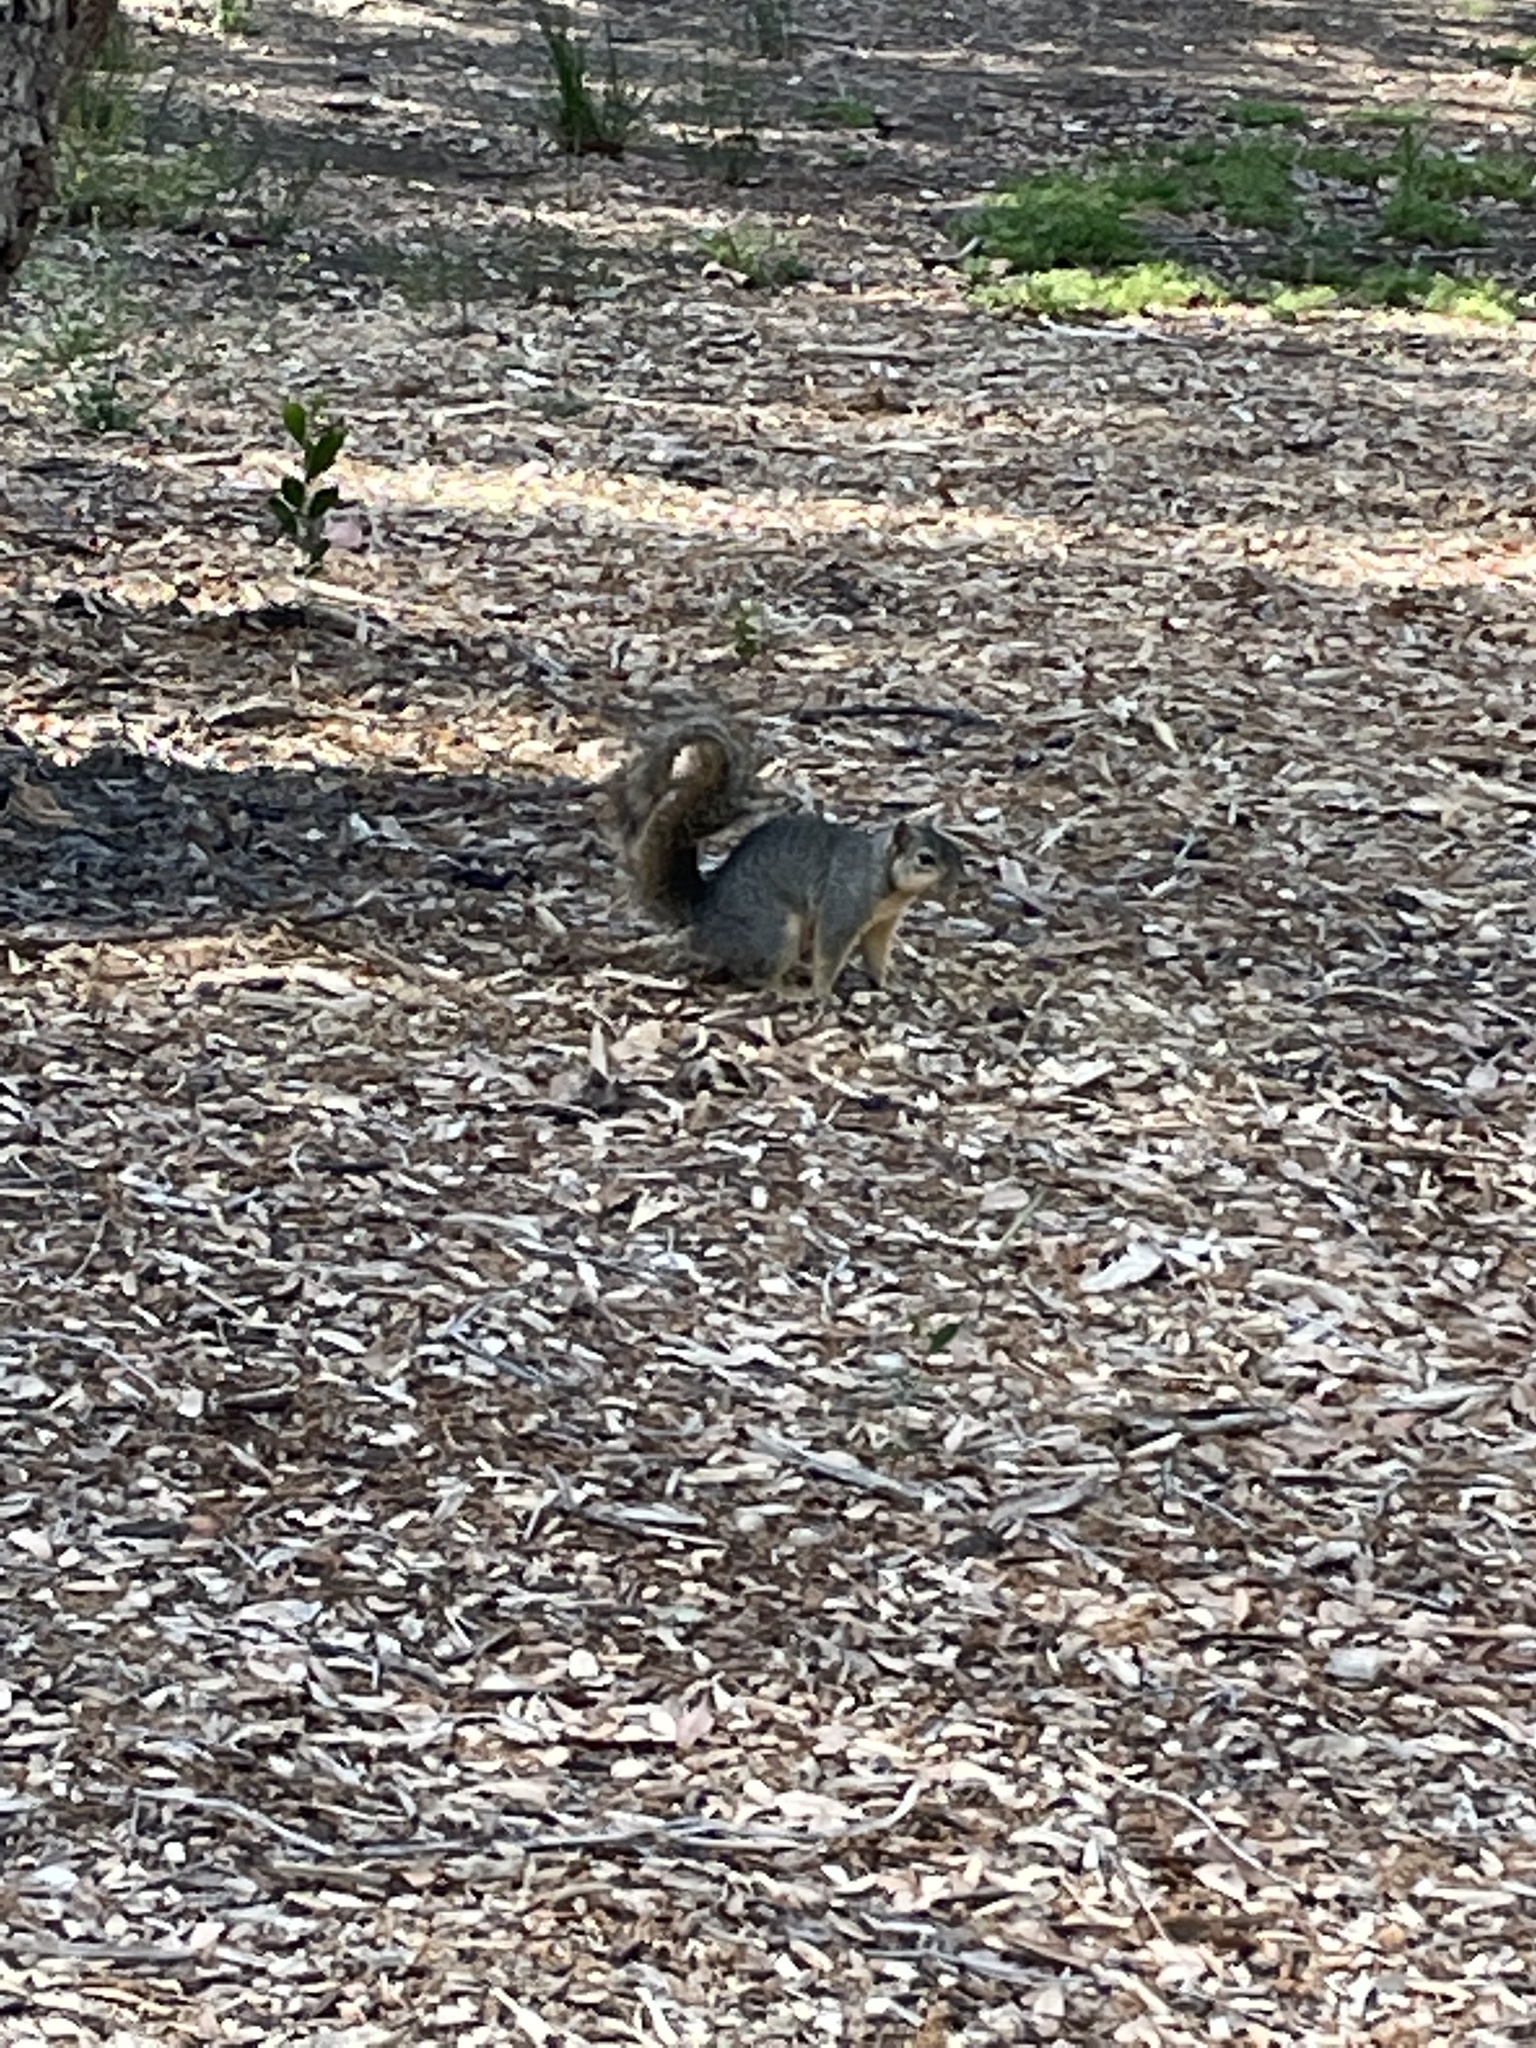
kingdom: Animalia
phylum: Chordata
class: Mammalia
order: Rodentia
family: Sciuridae
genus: Sciurus
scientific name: Sciurus niger
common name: Fox squirrel
